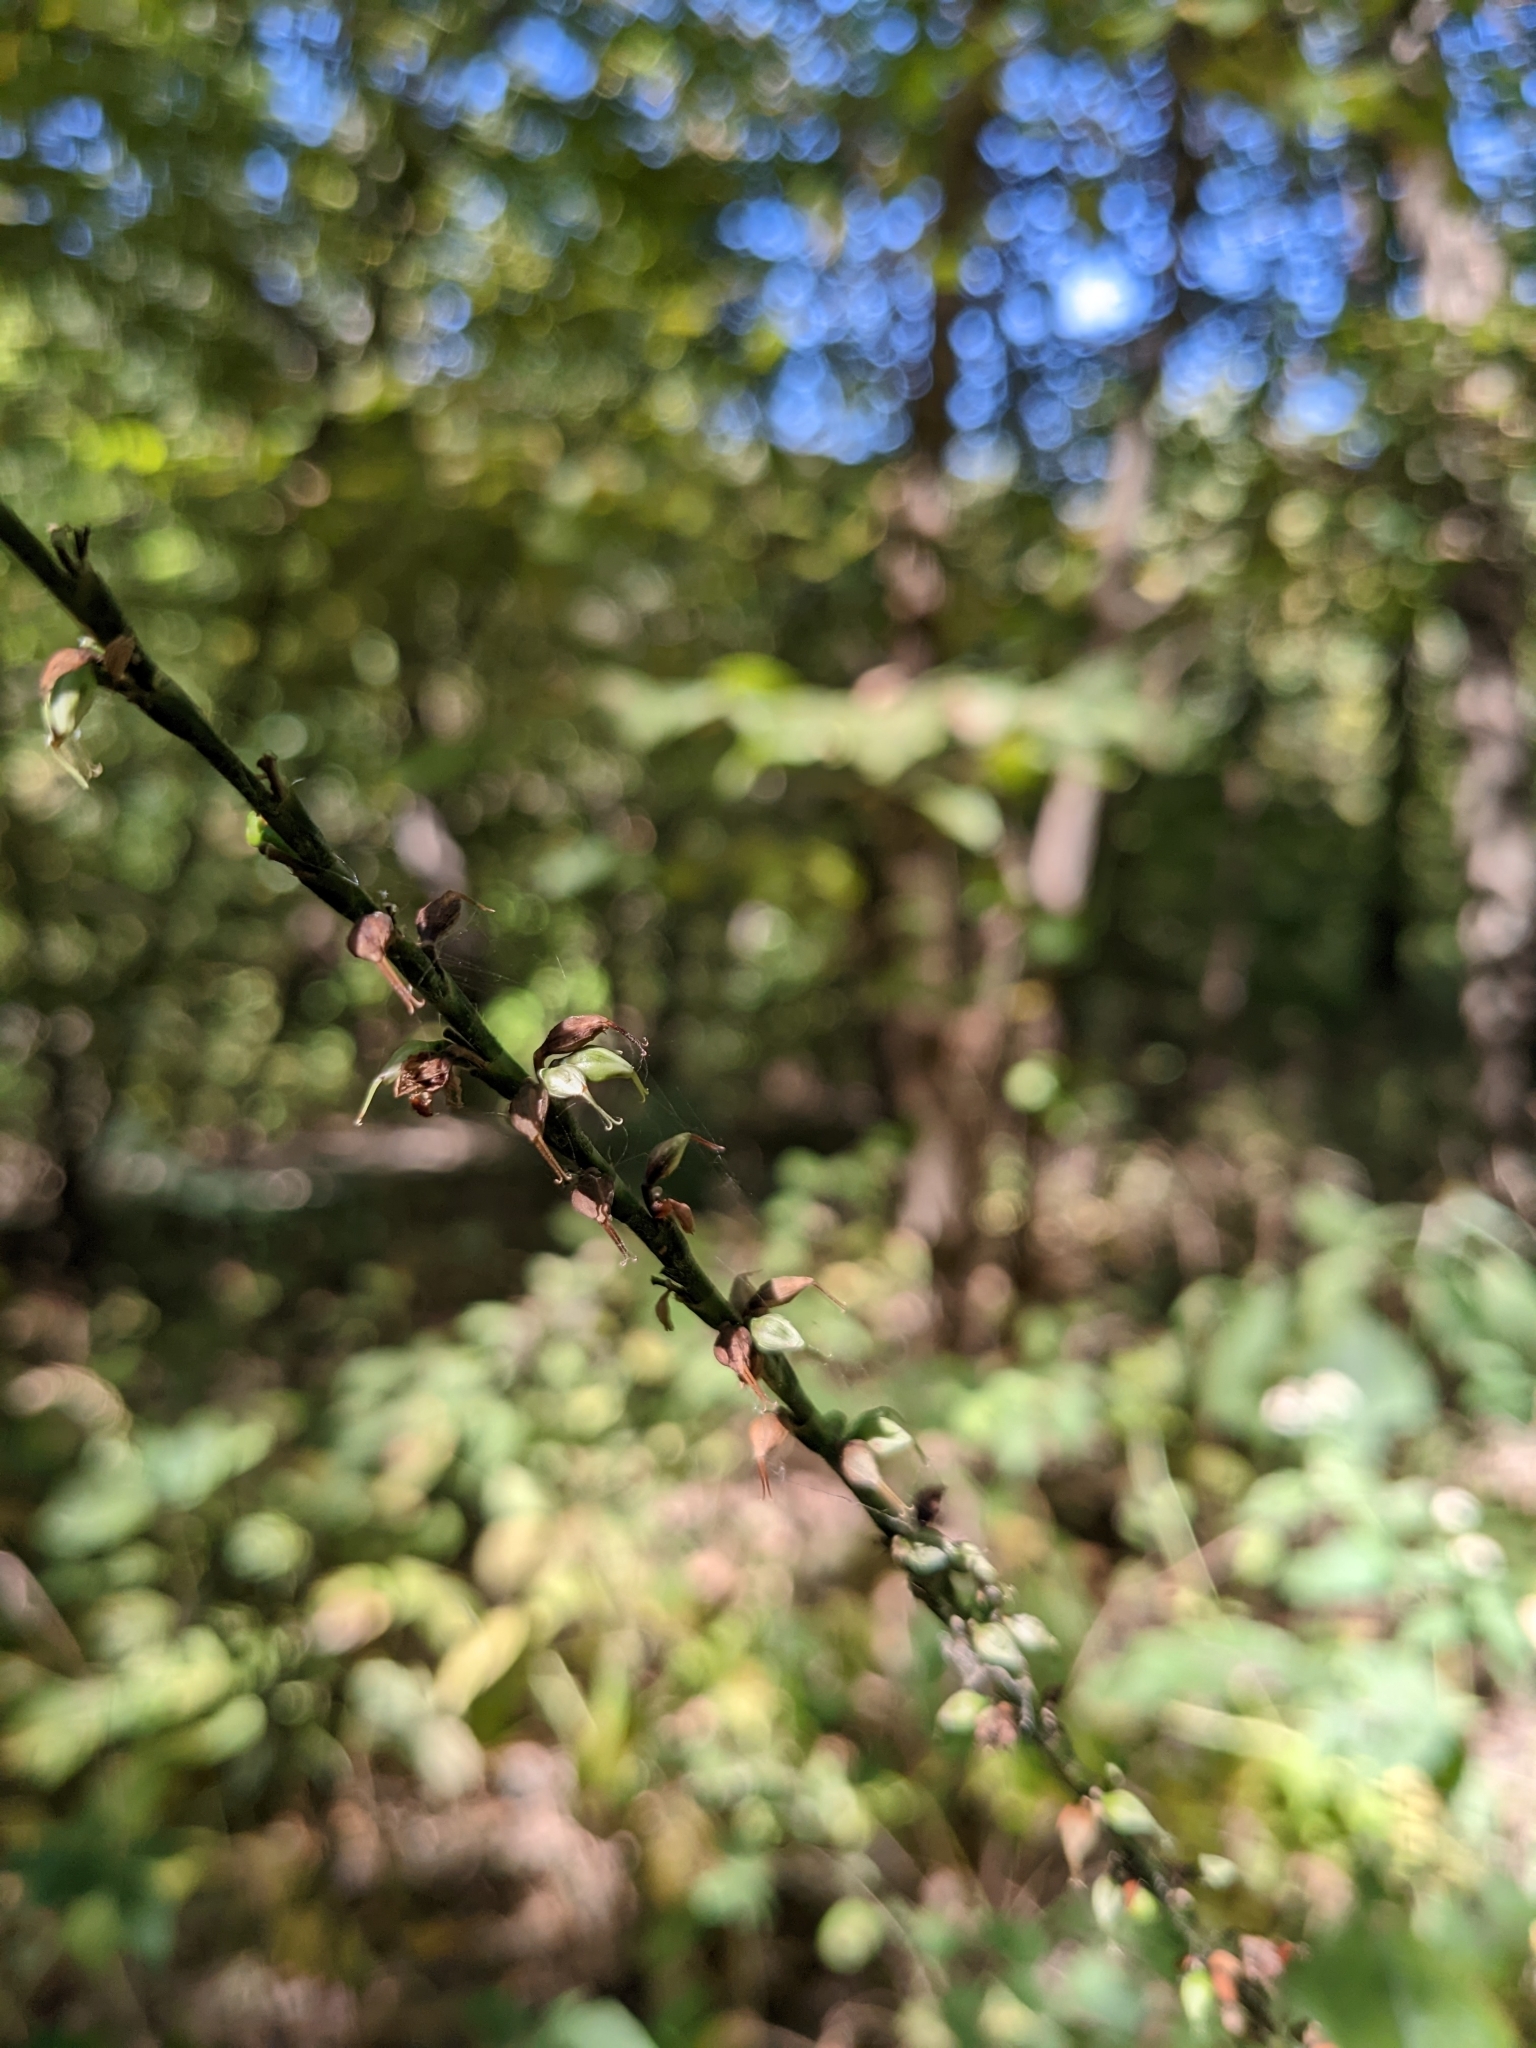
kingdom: Plantae
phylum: Tracheophyta
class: Magnoliopsida
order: Caryophyllales
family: Polygonaceae
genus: Persicaria
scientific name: Persicaria virginiana
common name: Jumpseed
